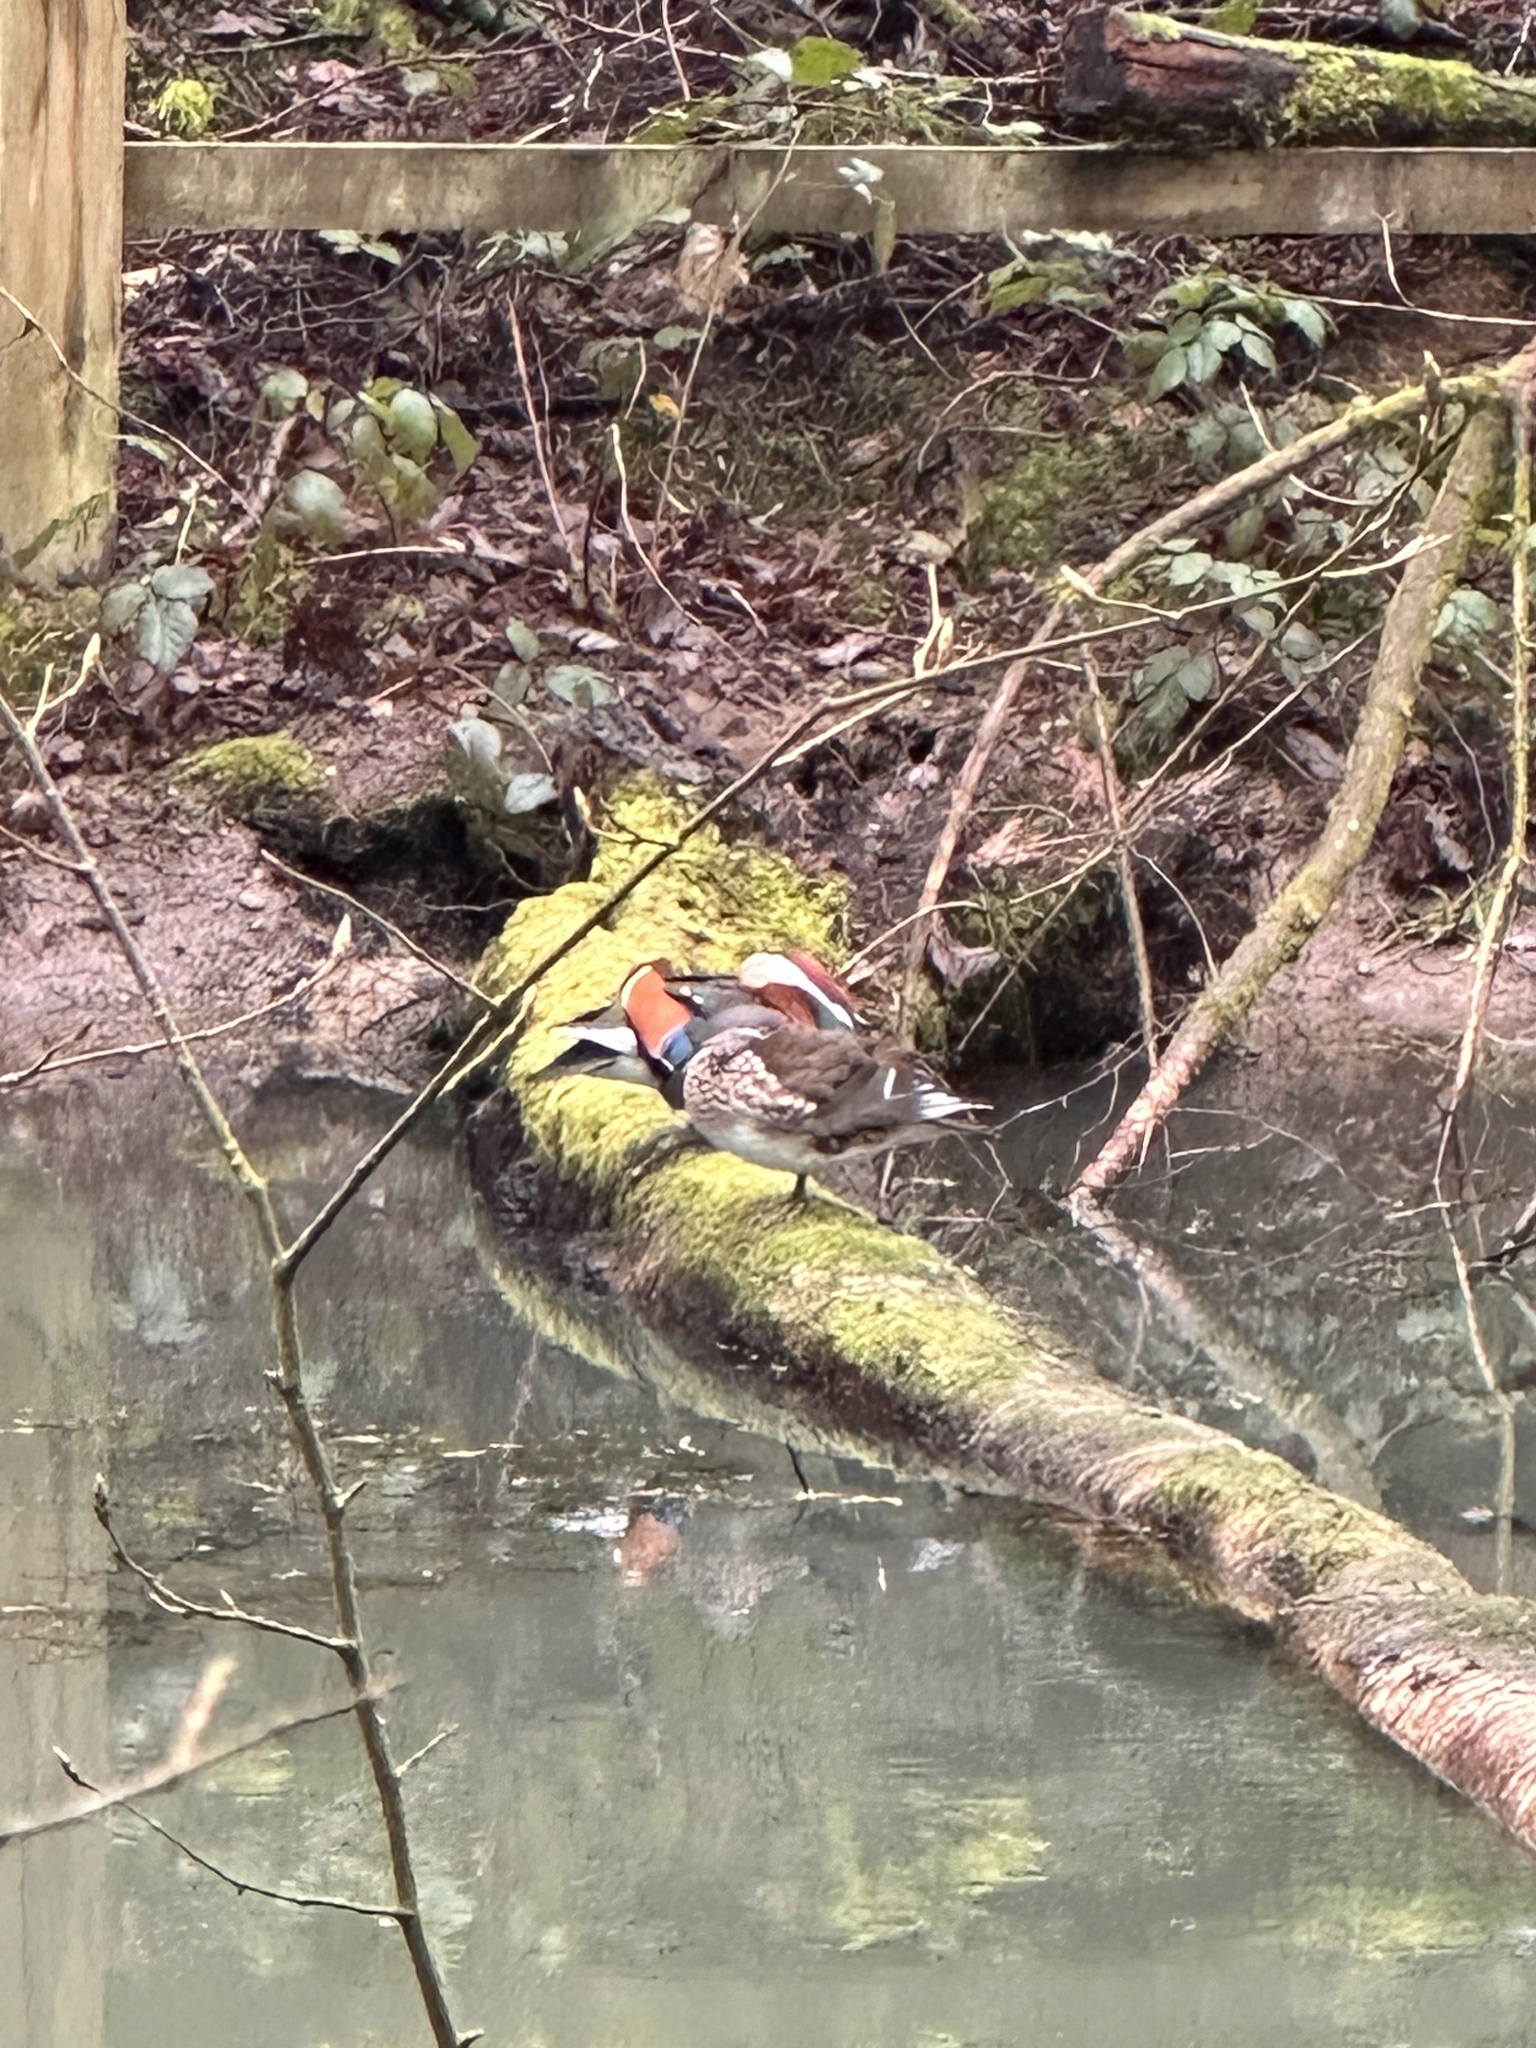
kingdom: Animalia
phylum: Chordata
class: Aves
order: Anseriformes
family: Anatidae
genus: Aix
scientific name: Aix galericulata
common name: Mandarin duck
